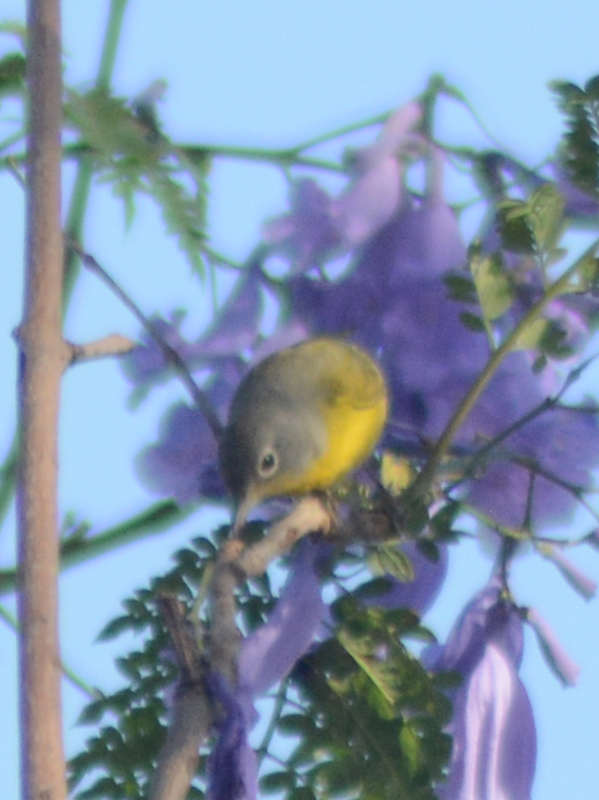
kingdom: Animalia
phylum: Chordata
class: Aves
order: Passeriformes
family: Parulidae
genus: Leiothlypis
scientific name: Leiothlypis ruficapilla
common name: Nashville warbler
